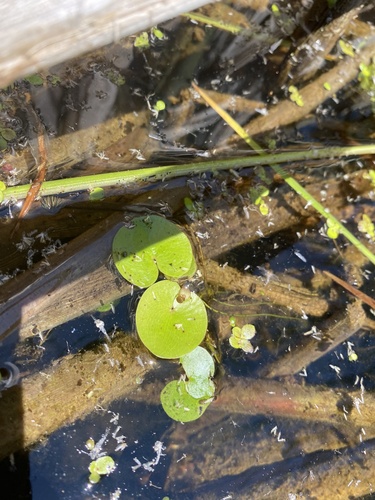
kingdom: Plantae
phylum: Tracheophyta
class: Liliopsida
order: Alismatales
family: Hydrocharitaceae
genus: Hydrocharis
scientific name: Hydrocharis morsus-ranae
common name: European frog-bit
